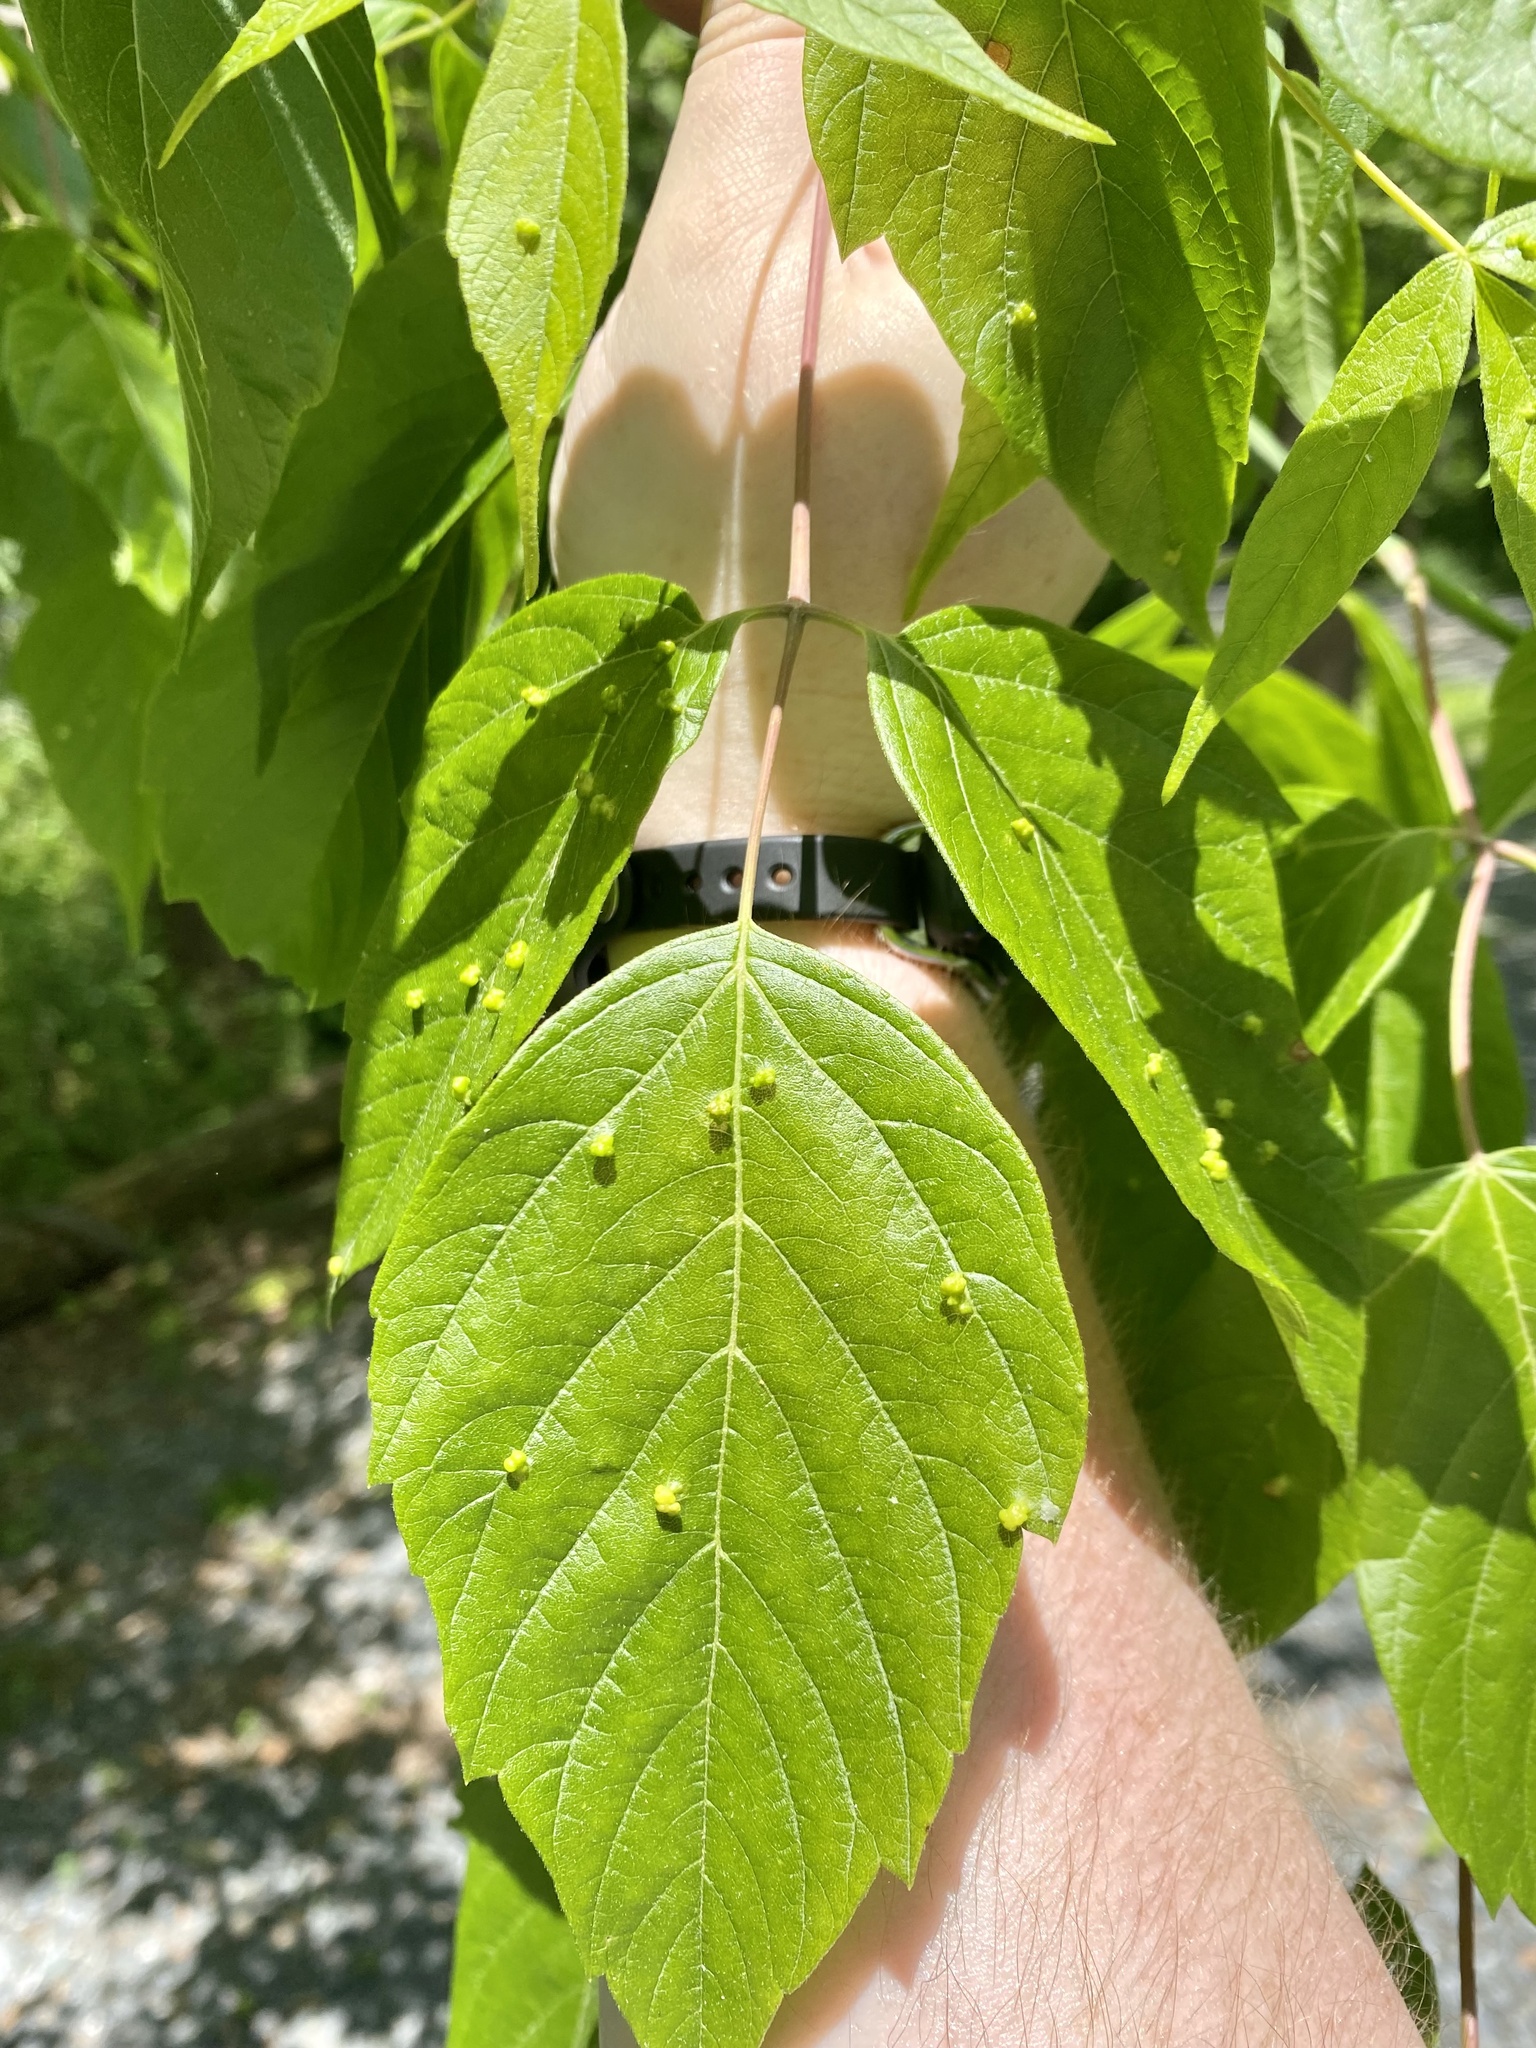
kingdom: Animalia
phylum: Arthropoda
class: Arachnida
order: Trombidiformes
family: Eriophyidae
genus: Aceria
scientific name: Aceria
